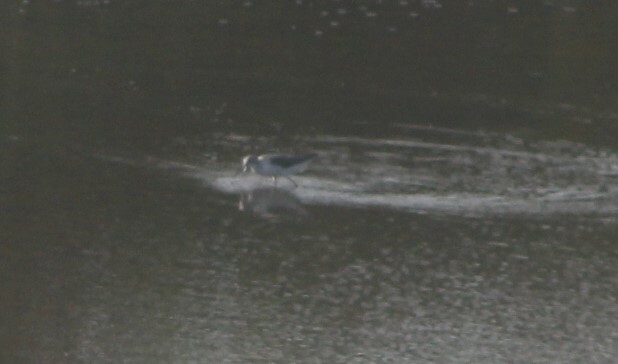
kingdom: Animalia
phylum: Chordata
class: Aves
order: Charadriiformes
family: Scolopacidae
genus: Tringa
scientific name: Tringa nebularia
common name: Common greenshank
